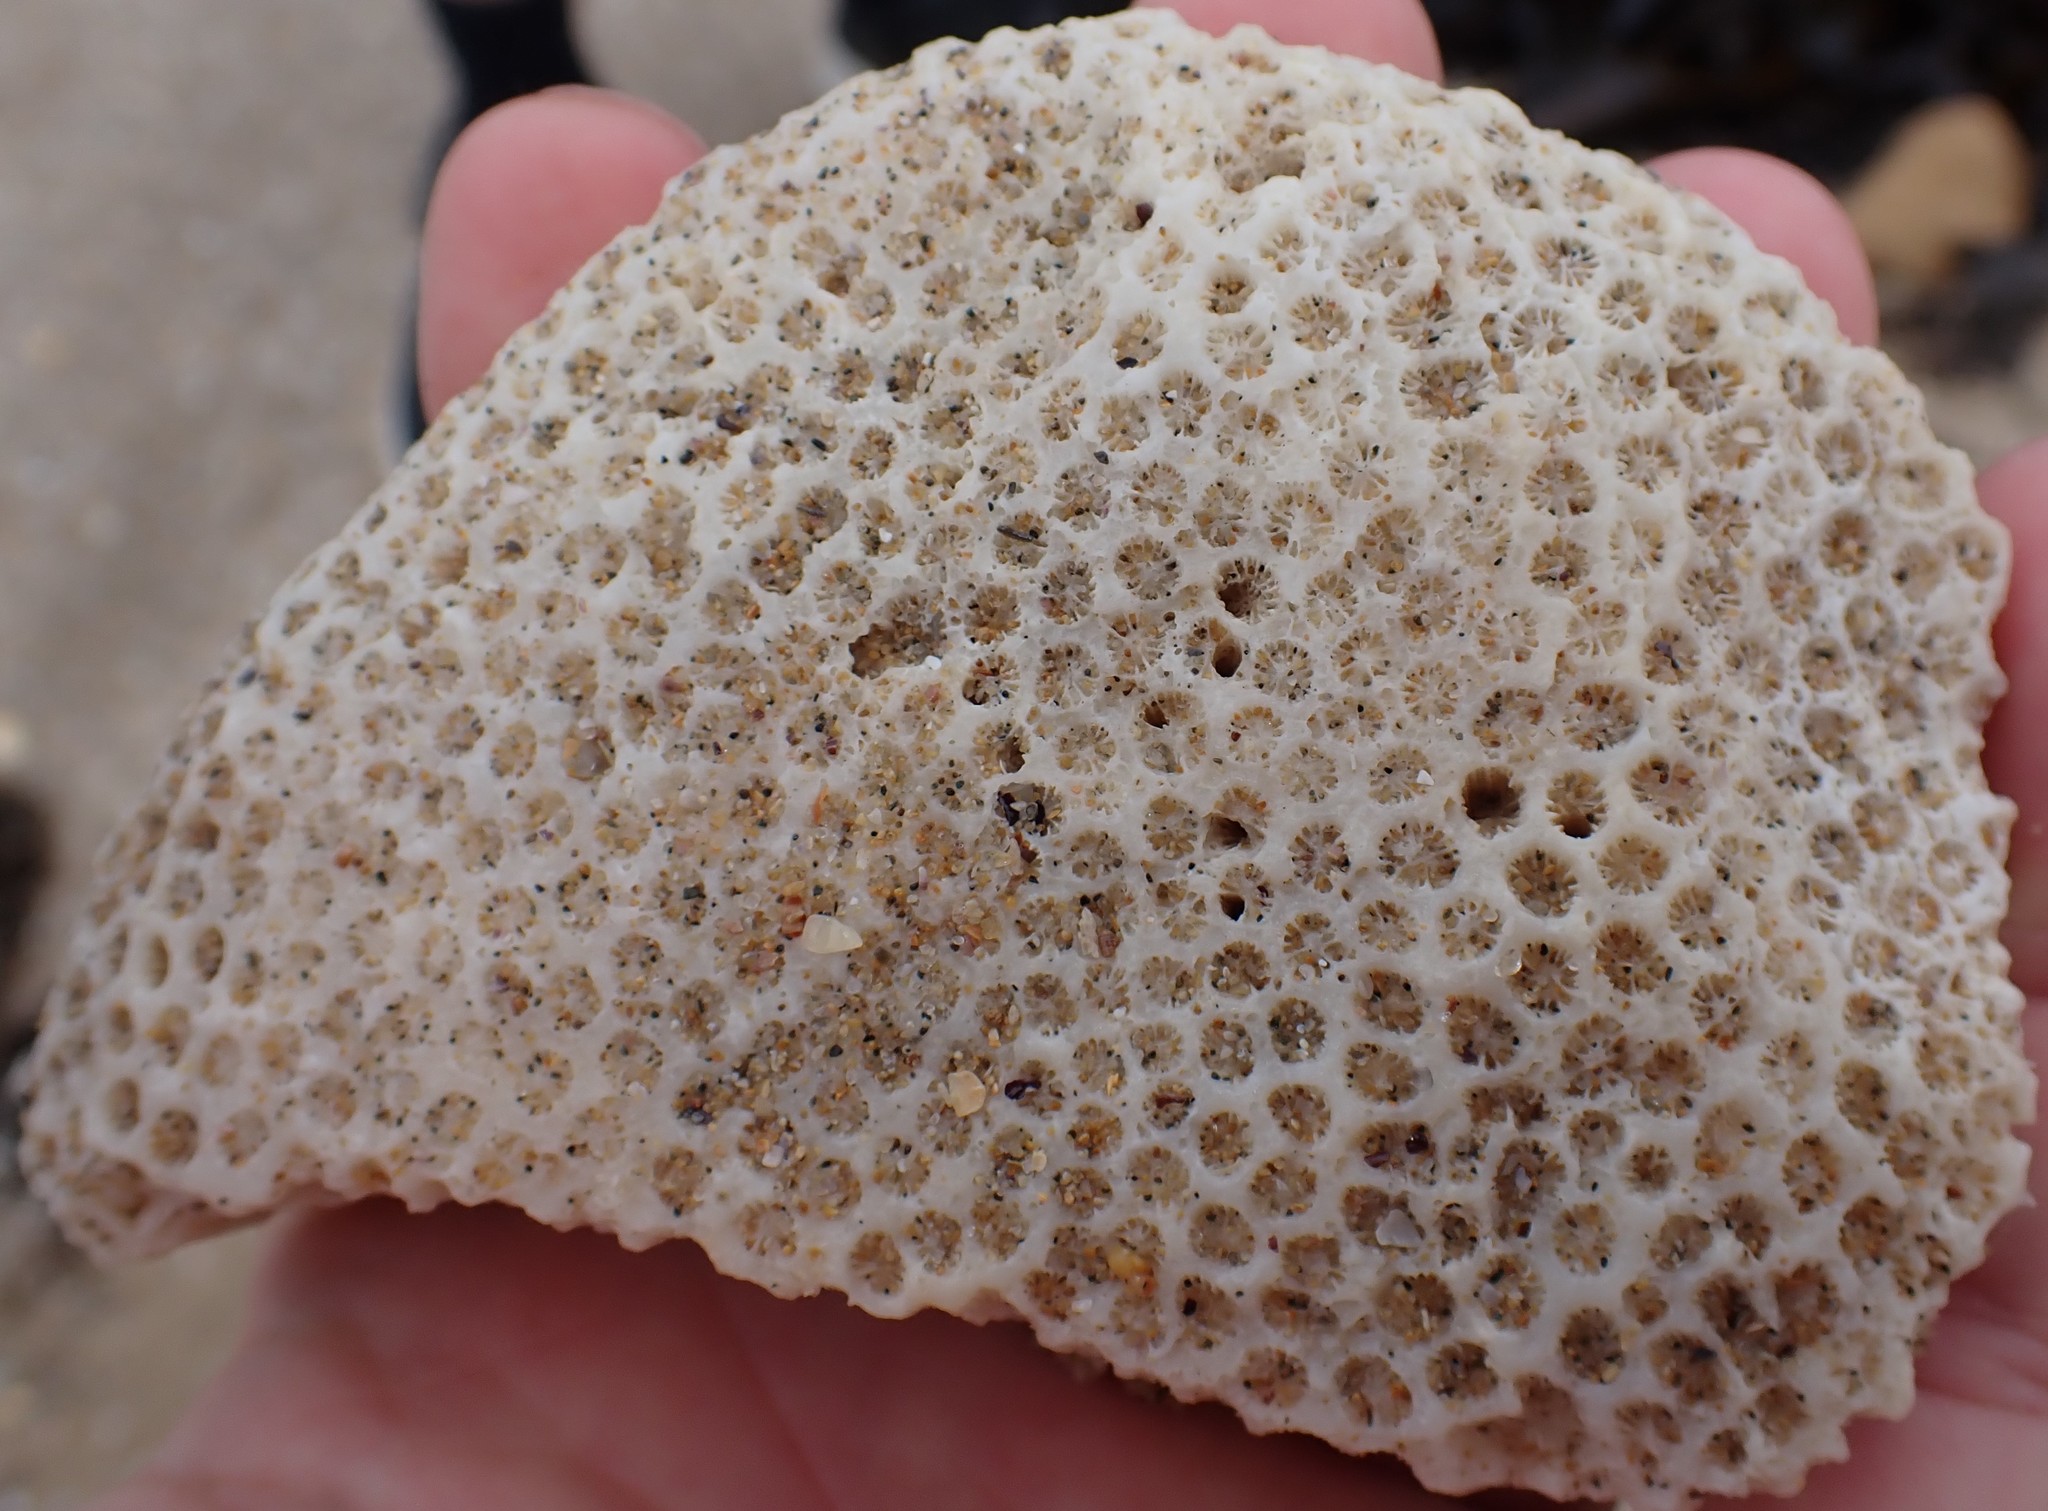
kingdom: Animalia
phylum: Cnidaria
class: Anthozoa
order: Scleractinia
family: Plesiastreidae
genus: Plesiastrea
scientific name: Plesiastrea versipora
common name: Small knob coral
